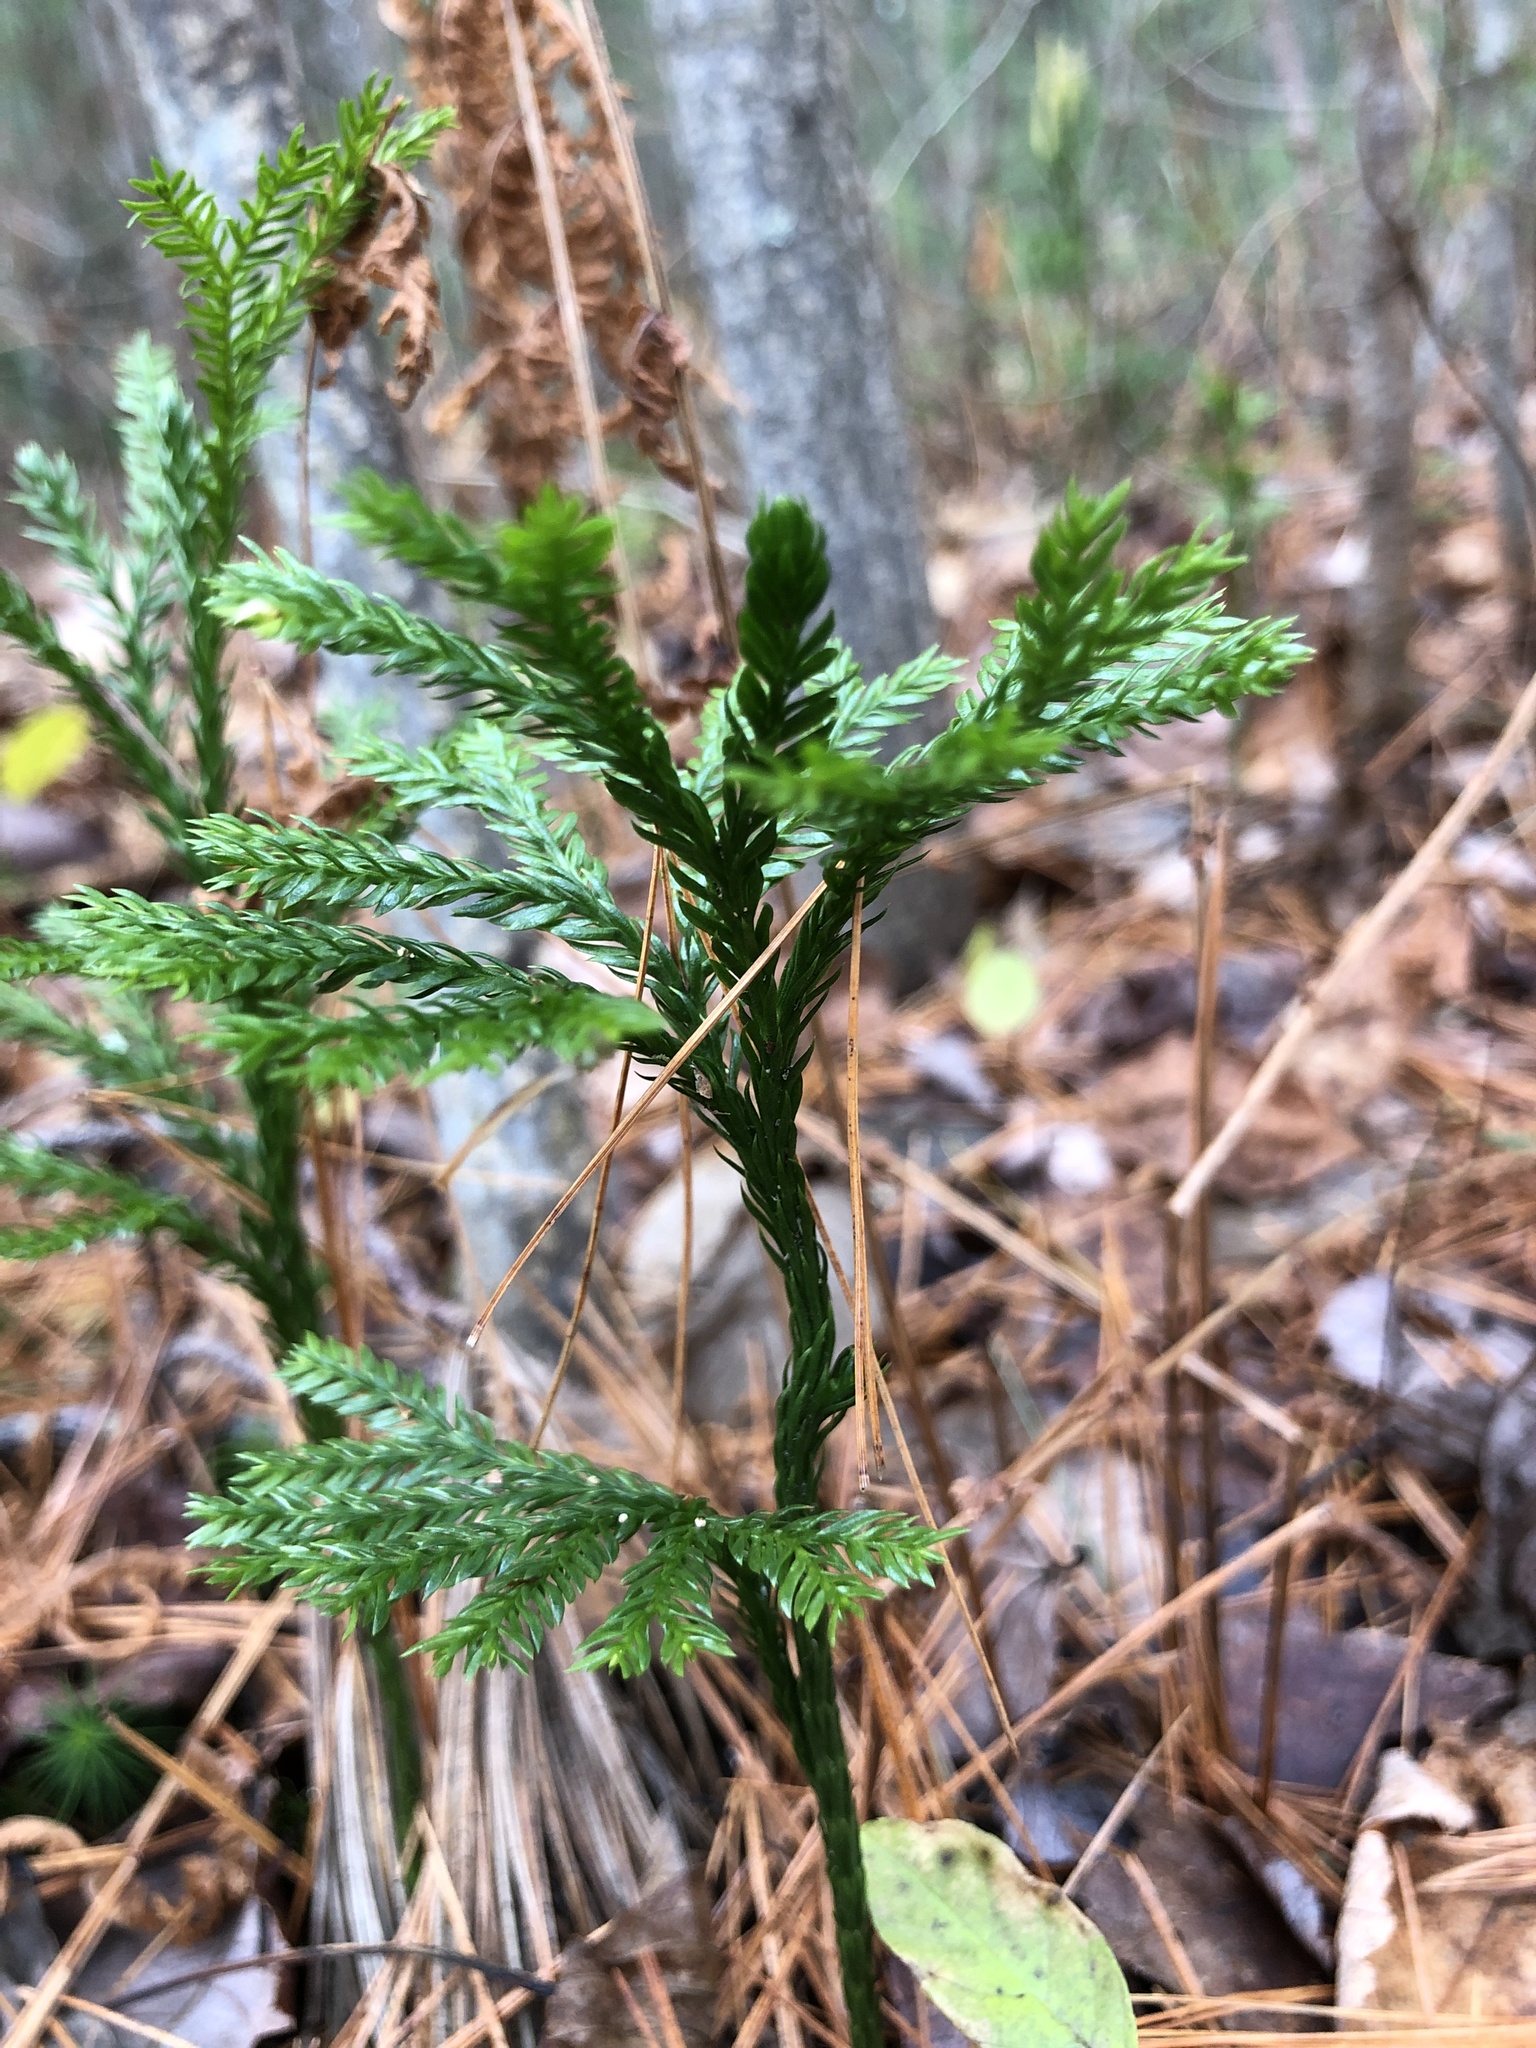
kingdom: Plantae
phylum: Tracheophyta
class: Lycopodiopsida
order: Lycopodiales
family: Lycopodiaceae
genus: Dendrolycopodium
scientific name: Dendrolycopodium obscurum
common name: Common ground-pine
